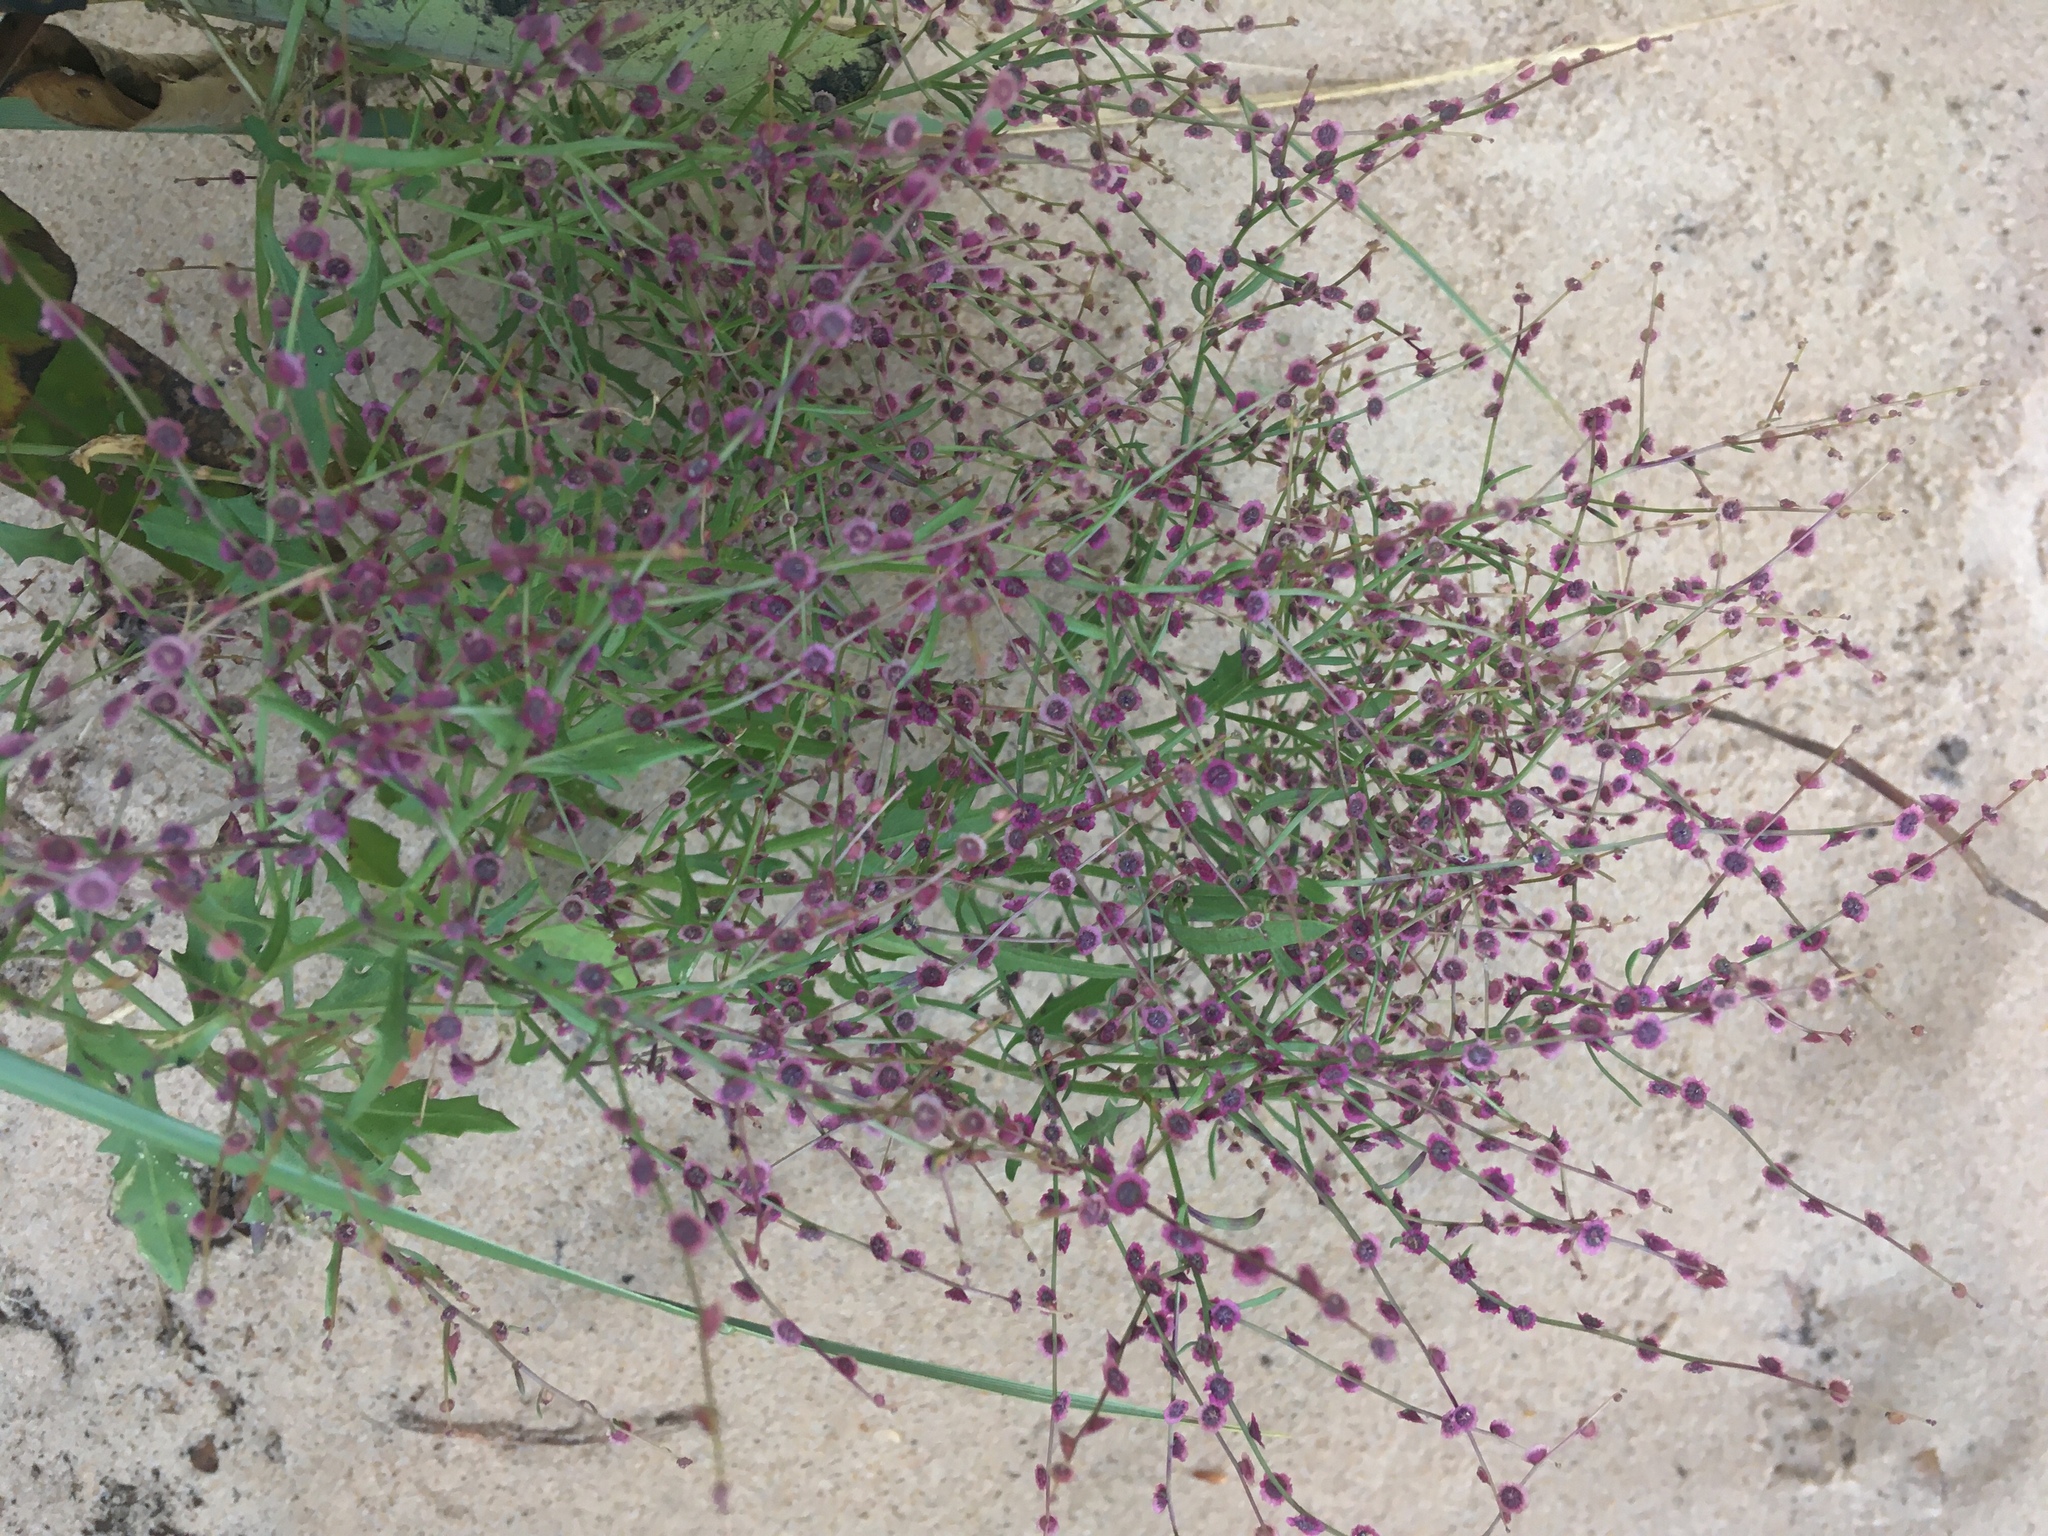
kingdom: Plantae
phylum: Tracheophyta
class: Magnoliopsida
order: Caryophyllales
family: Amaranthaceae
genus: Dysphania
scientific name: Dysphania atriplicifolia
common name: Plains tumbleweed
